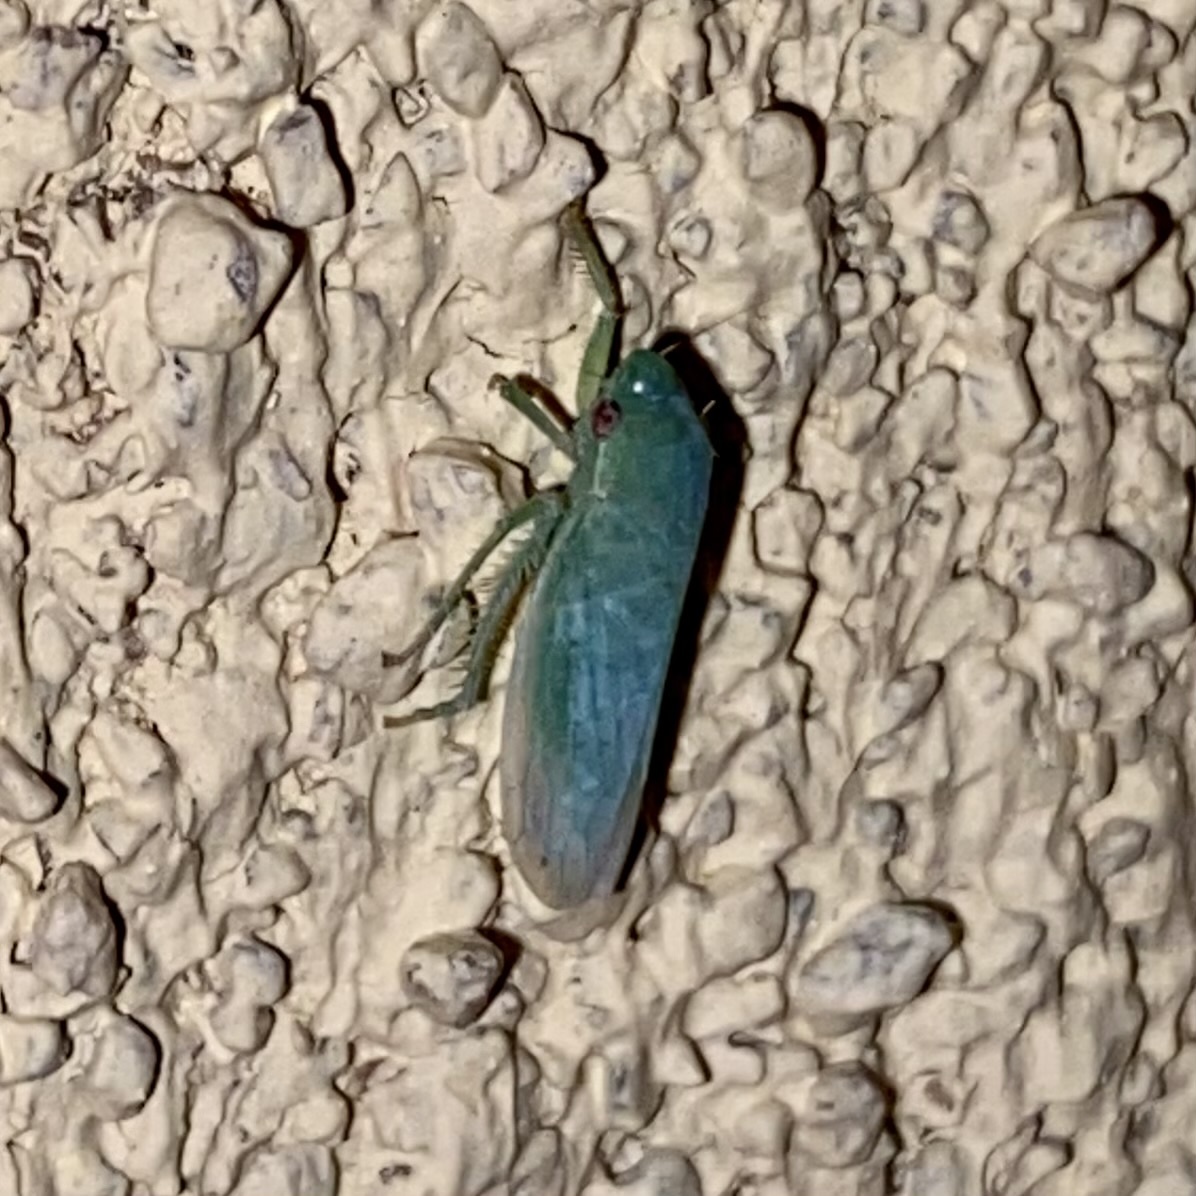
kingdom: Animalia
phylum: Arthropoda
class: Insecta
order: Hemiptera
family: Cicadellidae
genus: Gyponana
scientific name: Gyponana
